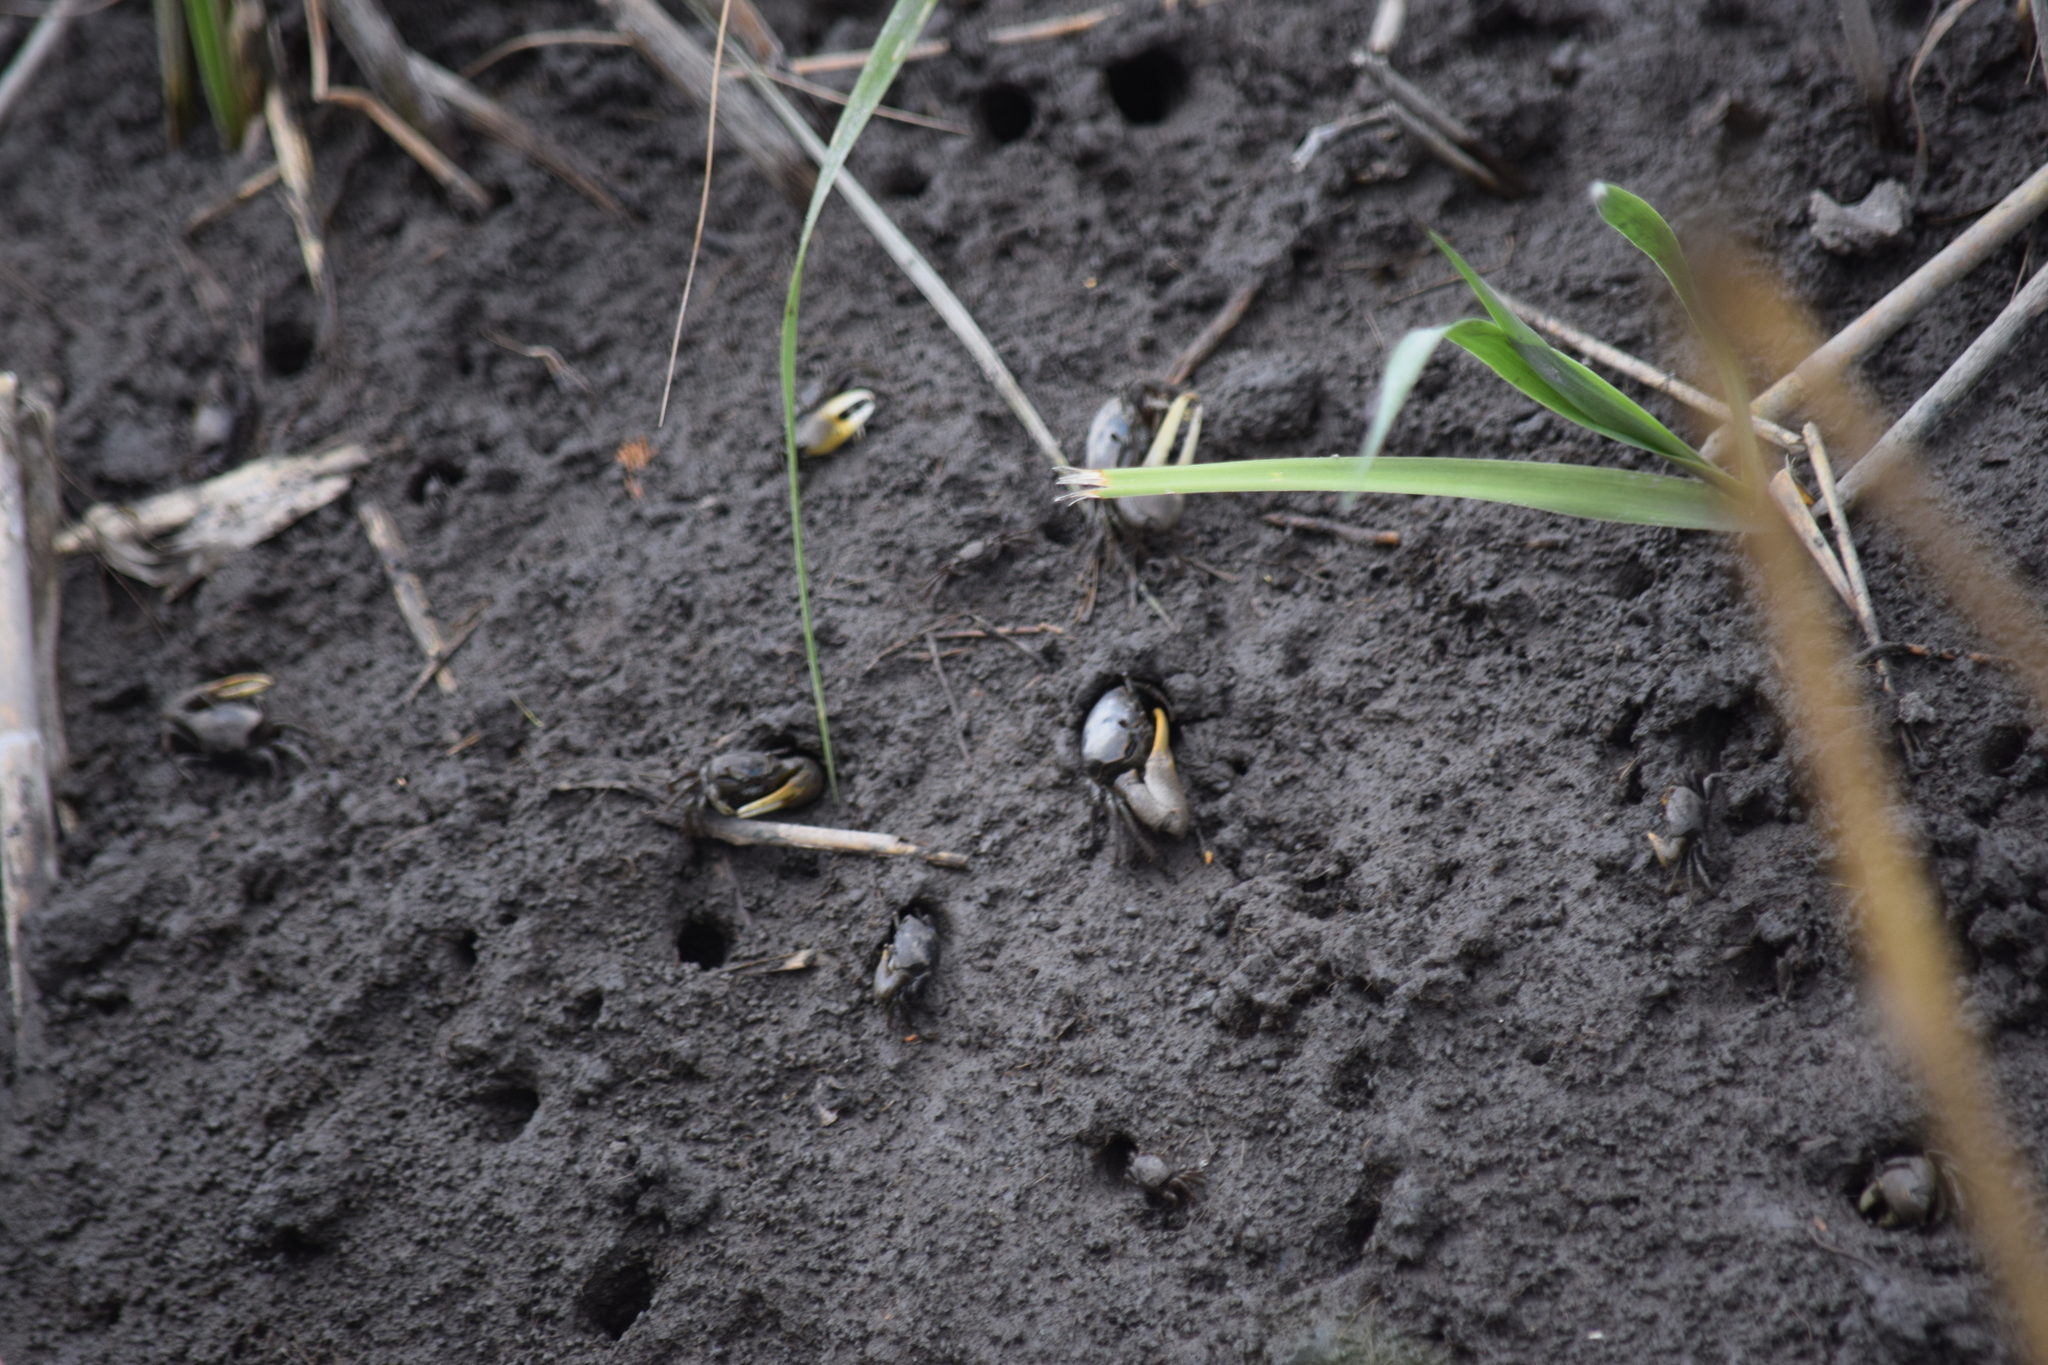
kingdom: Animalia
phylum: Arthropoda
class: Malacostraca
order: Decapoda
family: Ocypodidae
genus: Minuca
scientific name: Minuca pugnax
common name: Mud fiddler crab
